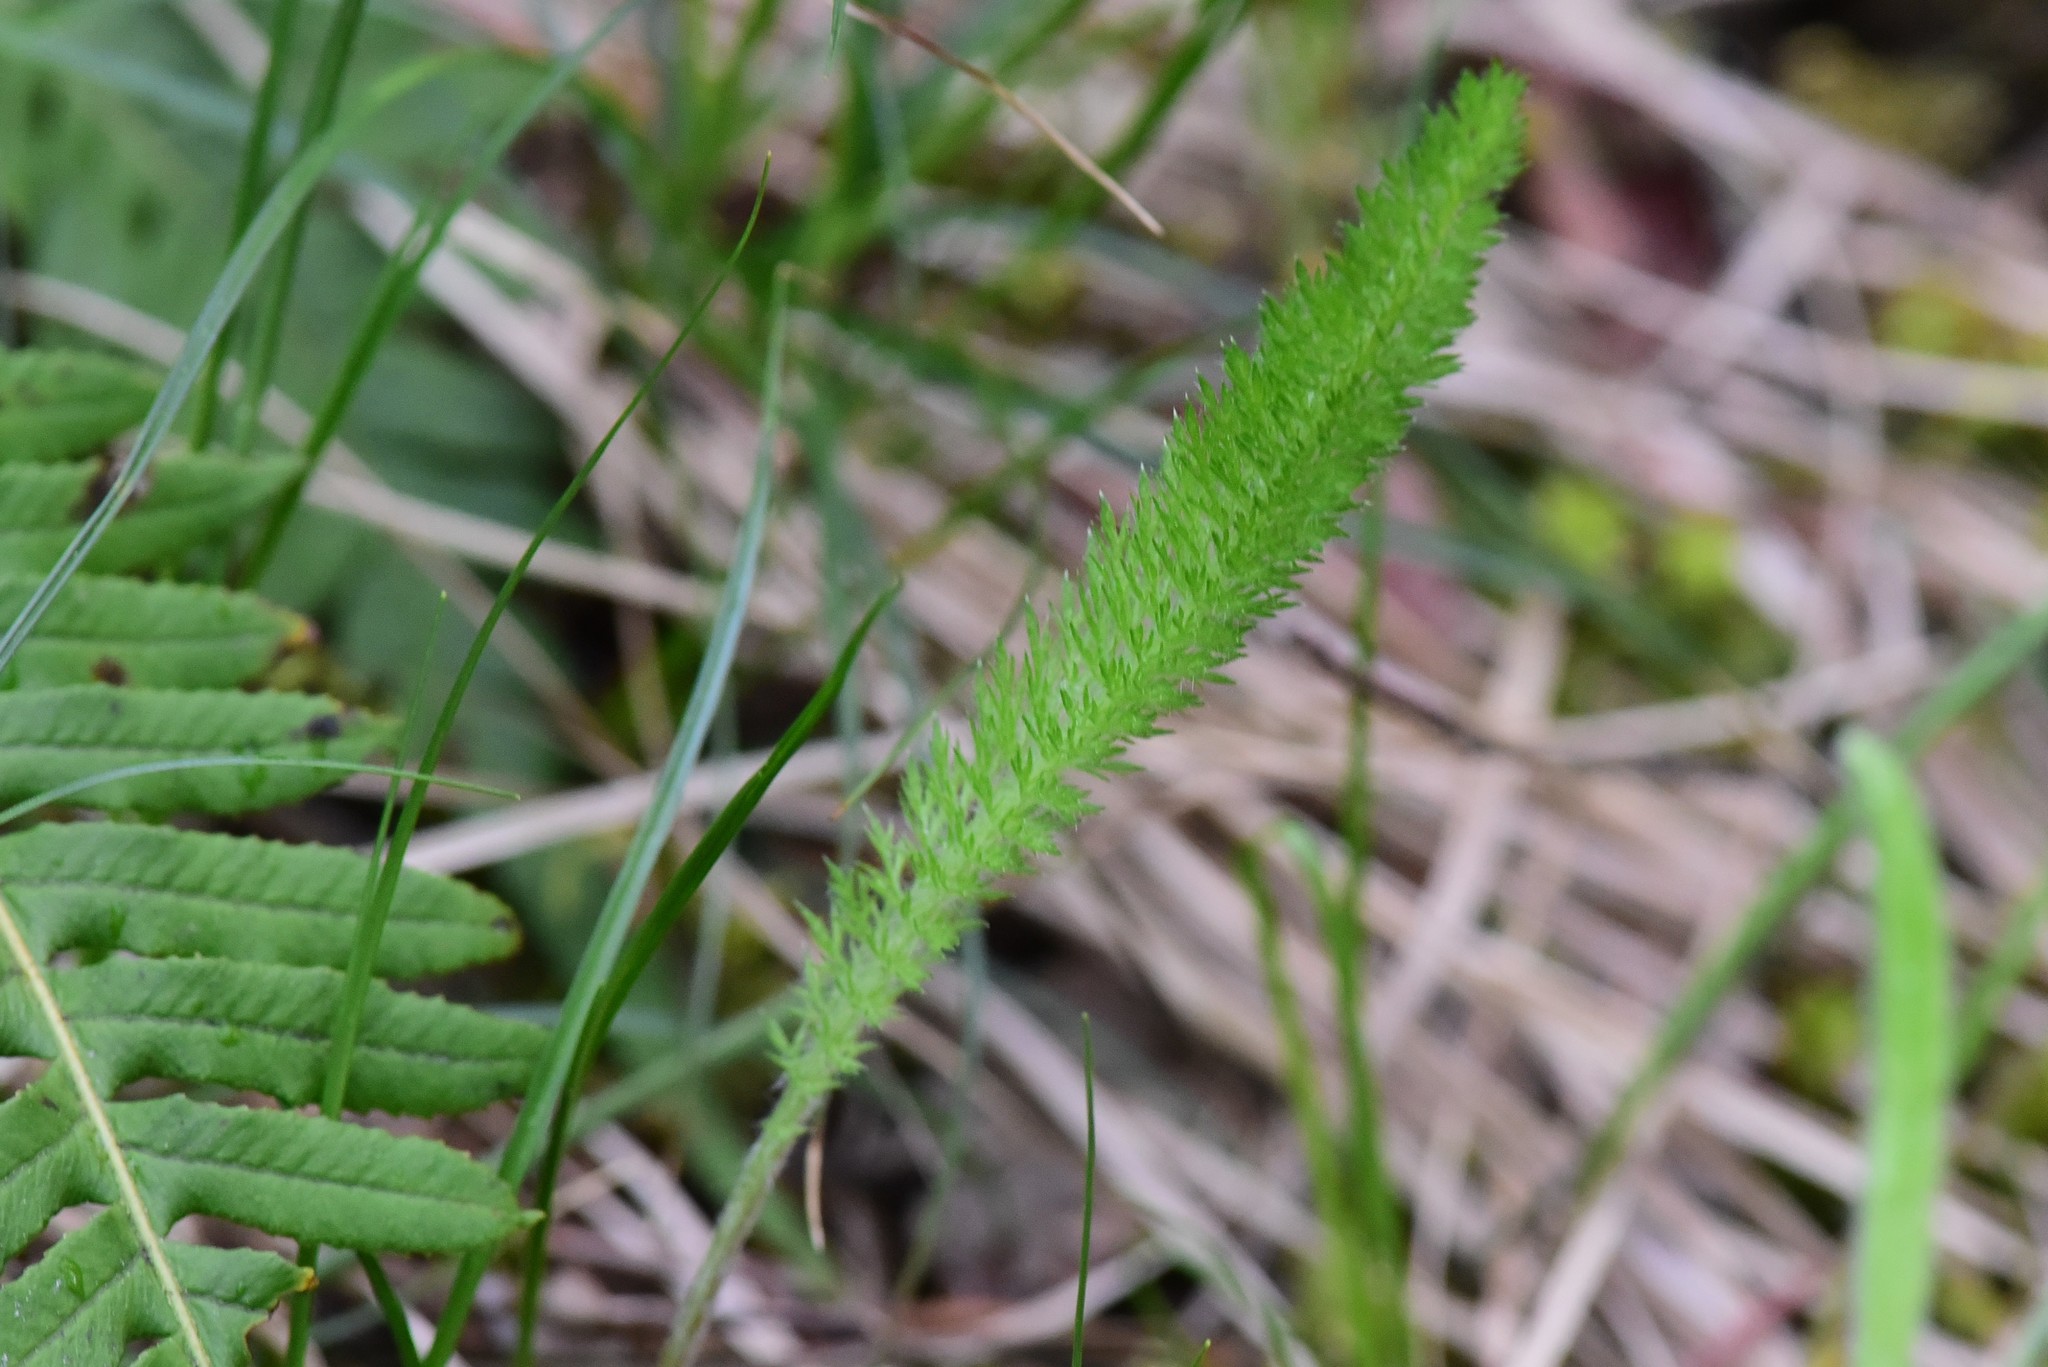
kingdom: Plantae
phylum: Tracheophyta
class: Magnoliopsida
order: Asterales
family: Asteraceae
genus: Achillea
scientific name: Achillea millefolium
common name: Yarrow
